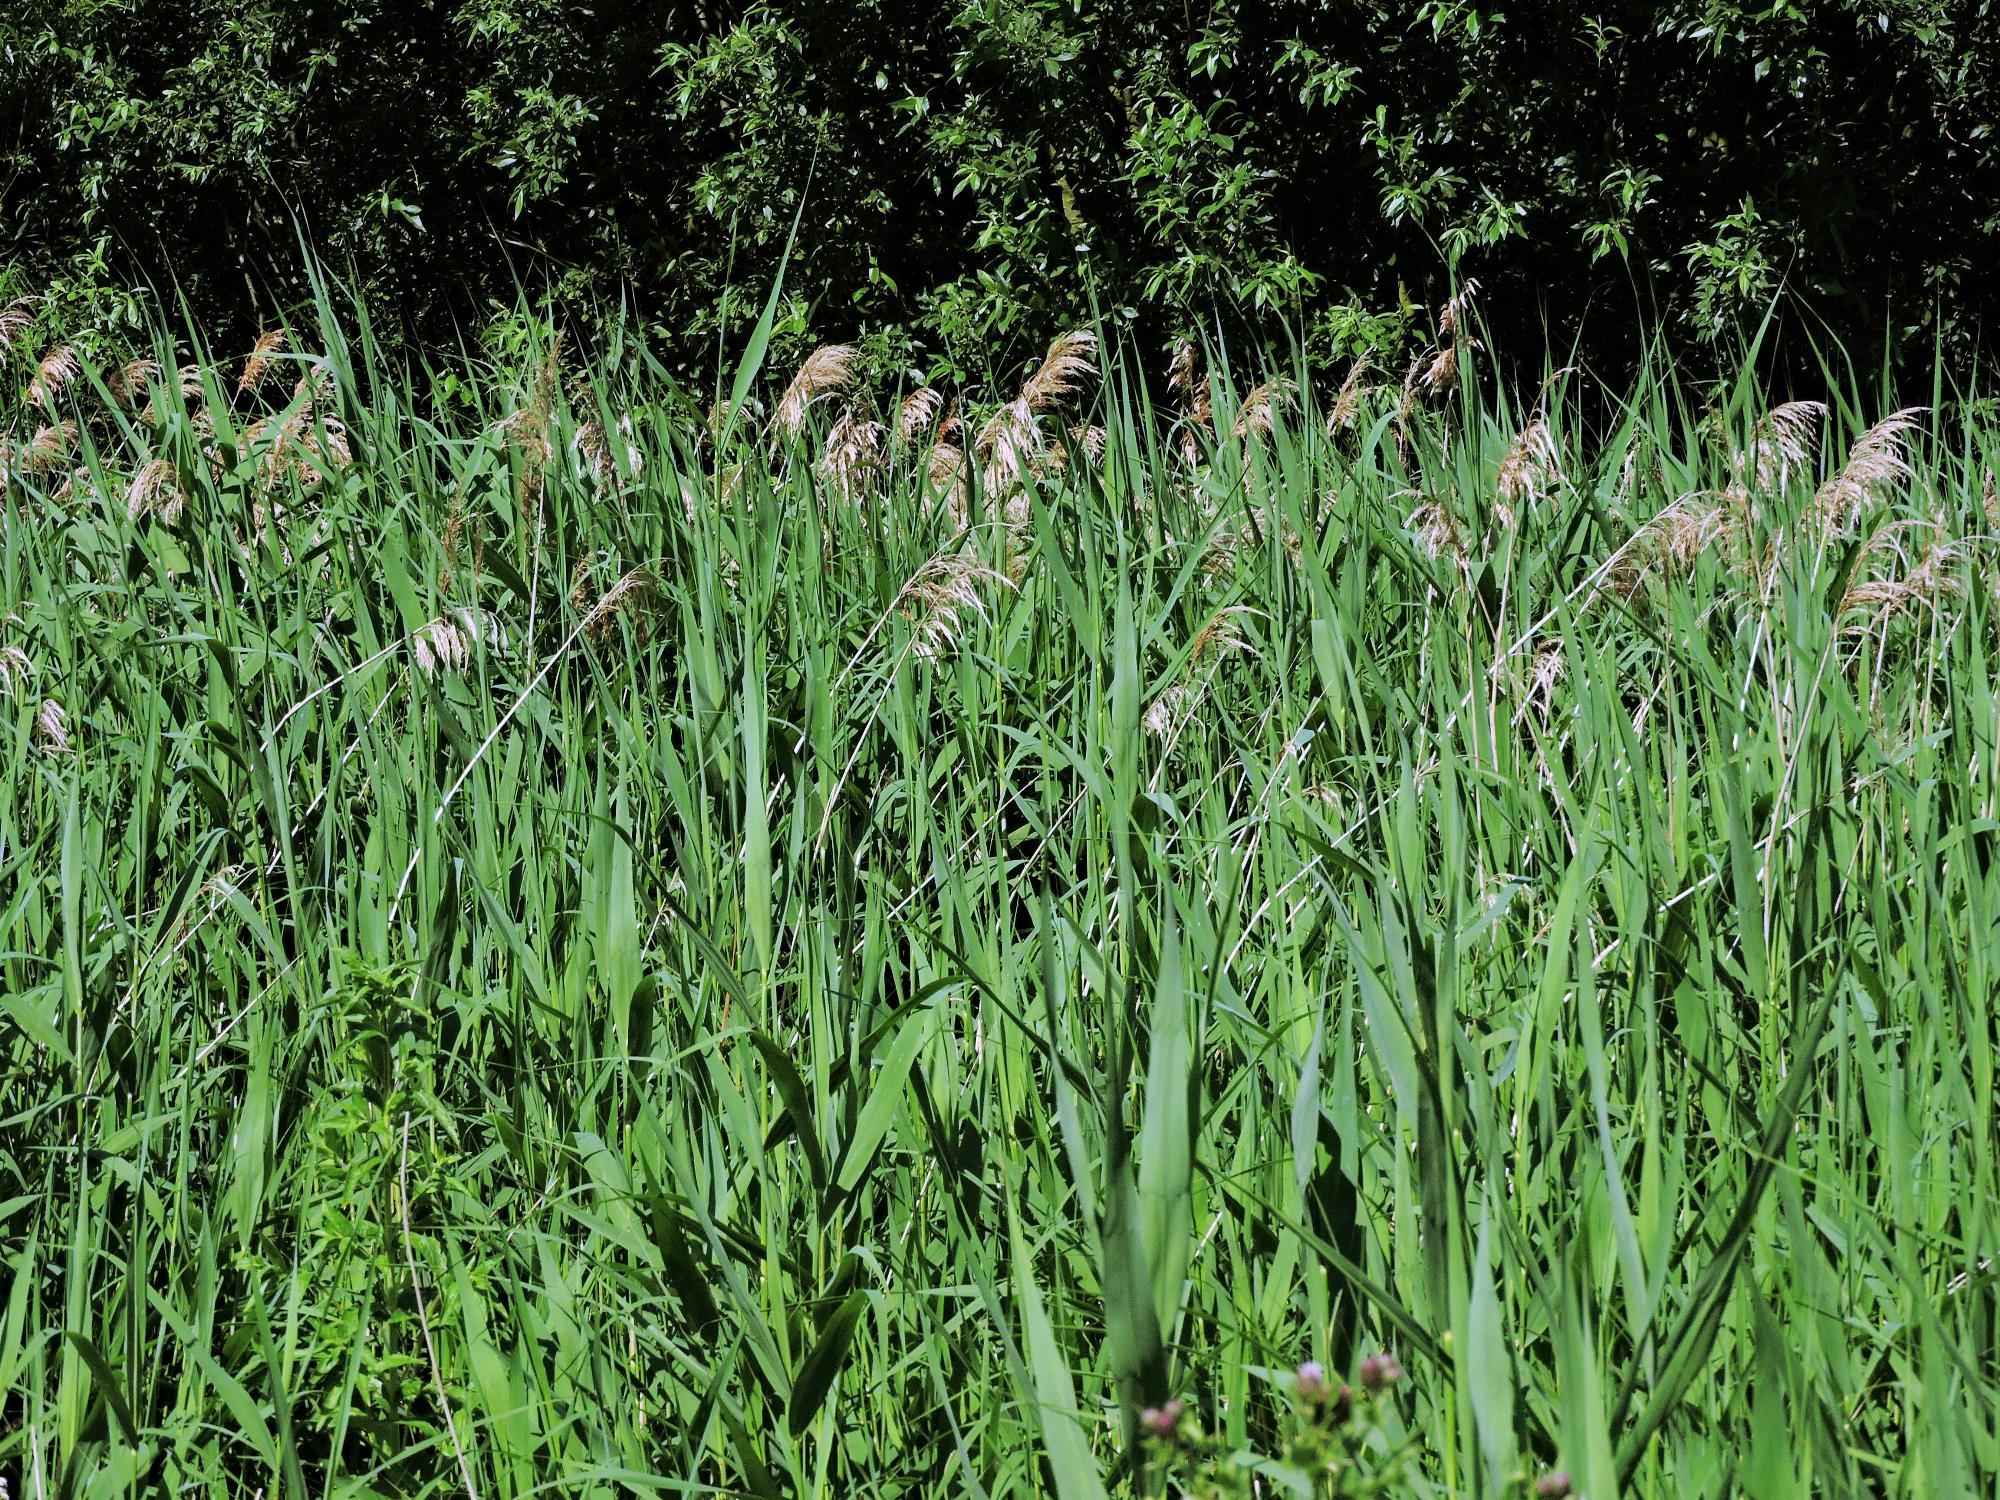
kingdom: Plantae
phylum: Tracheophyta
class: Liliopsida
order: Poales
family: Poaceae
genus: Phragmites
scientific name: Phragmites australis
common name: Common reed
